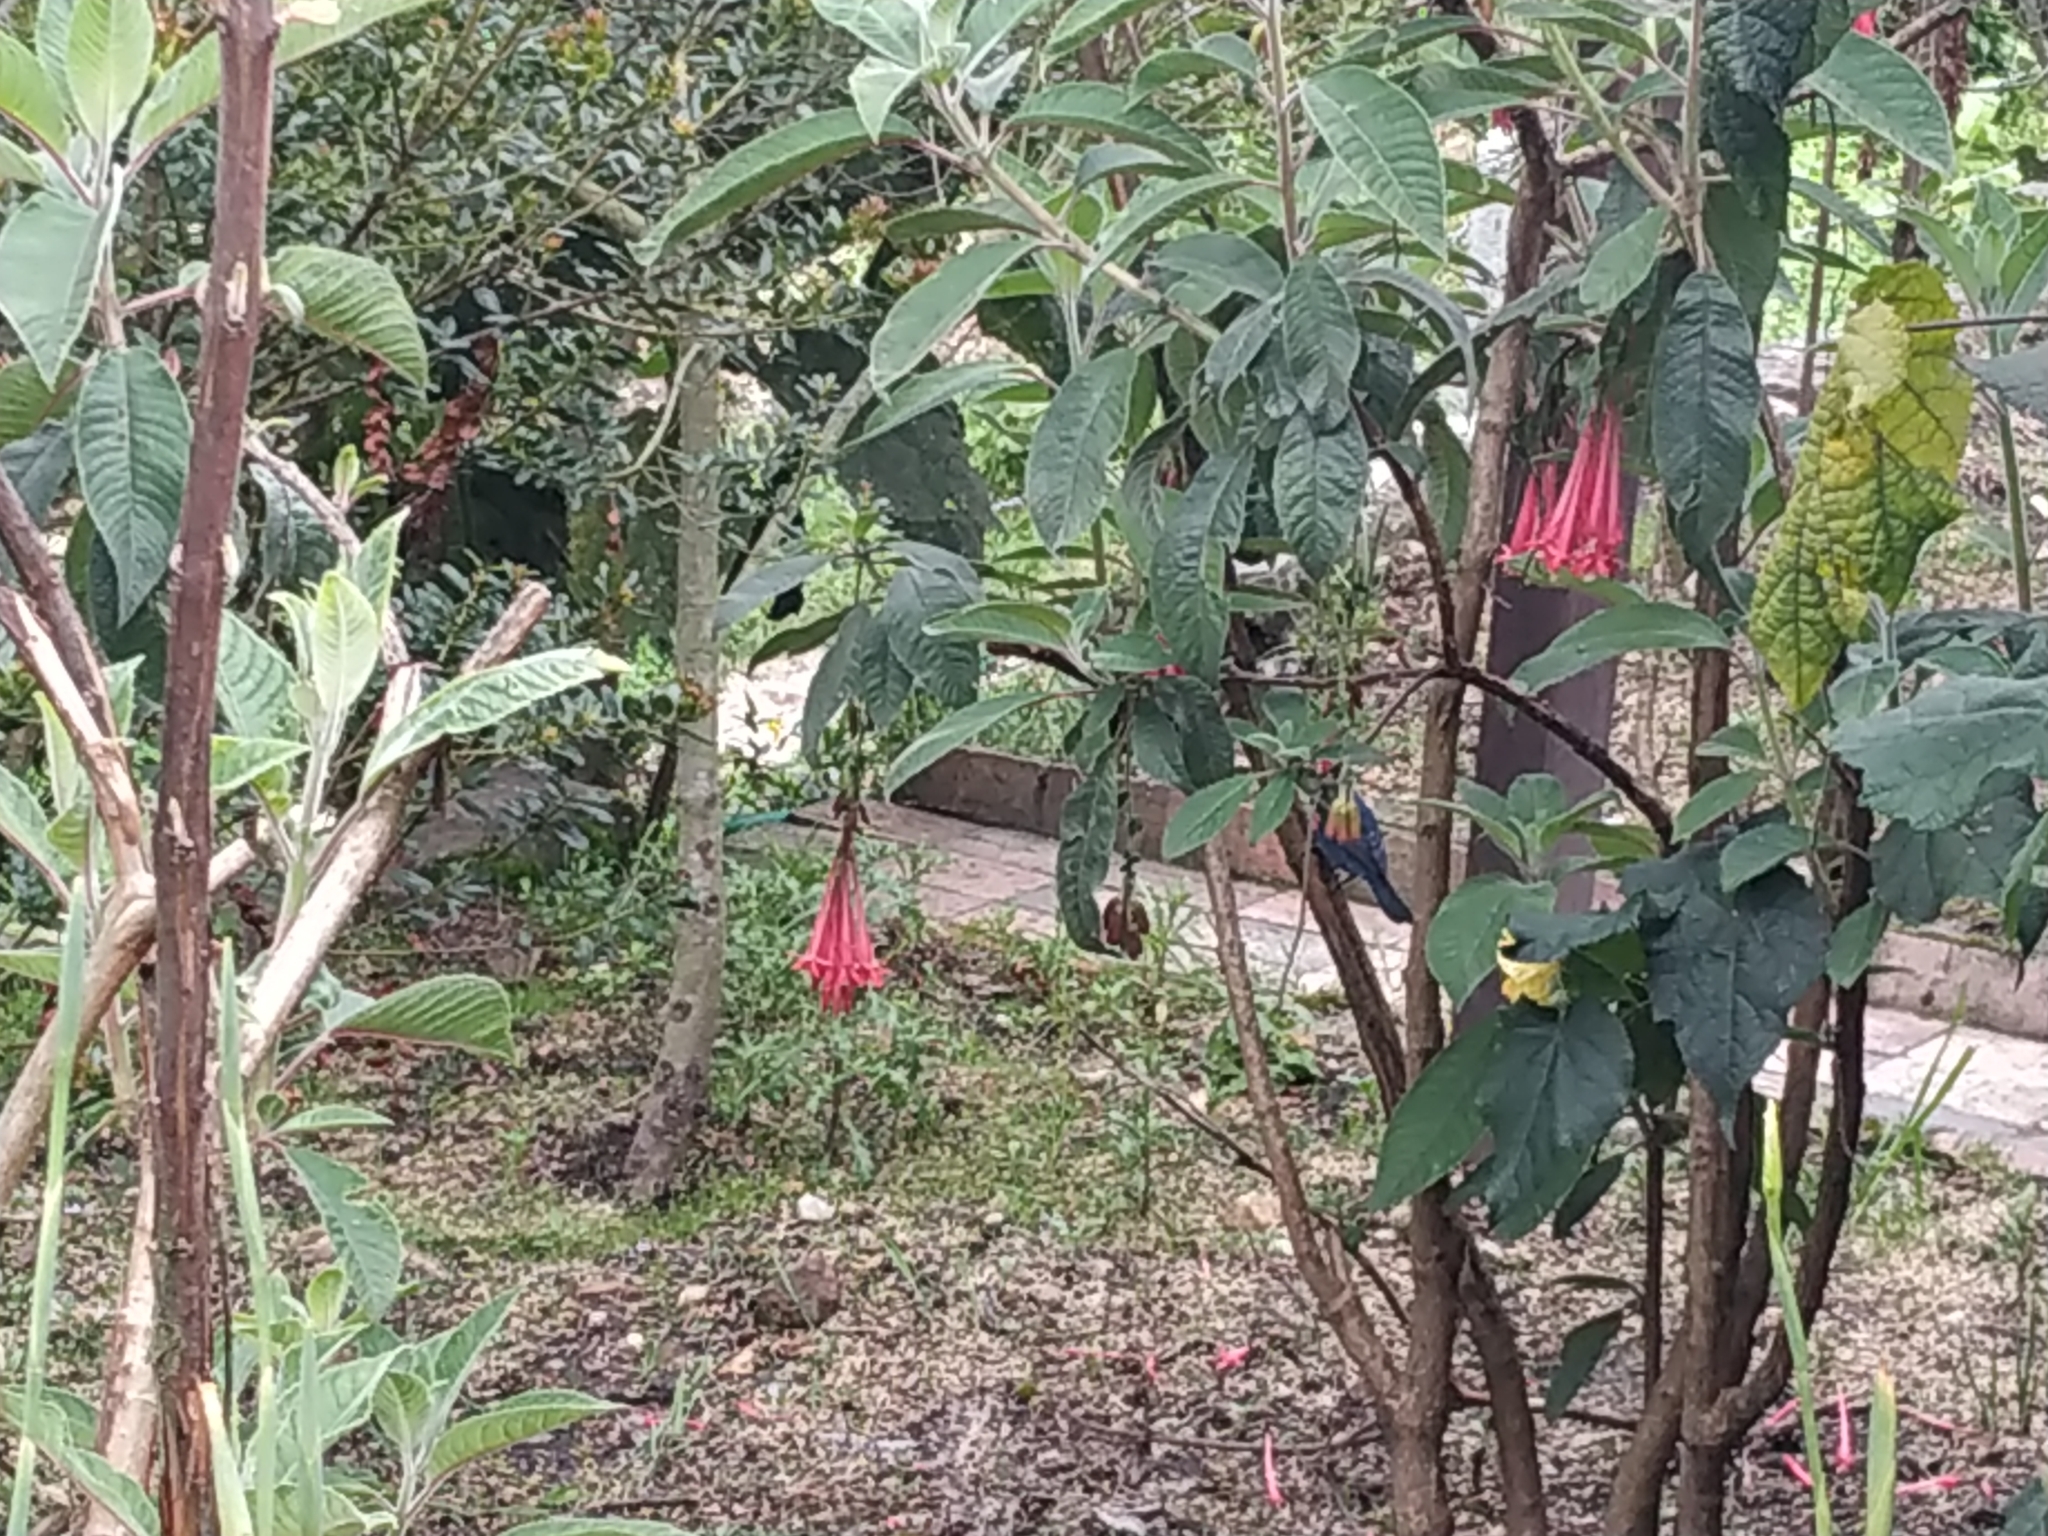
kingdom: Animalia
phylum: Chordata
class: Aves
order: Passeriformes
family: Thraupidae
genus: Diglossa
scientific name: Diglossa cyanea
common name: Masked flowerpiercer
